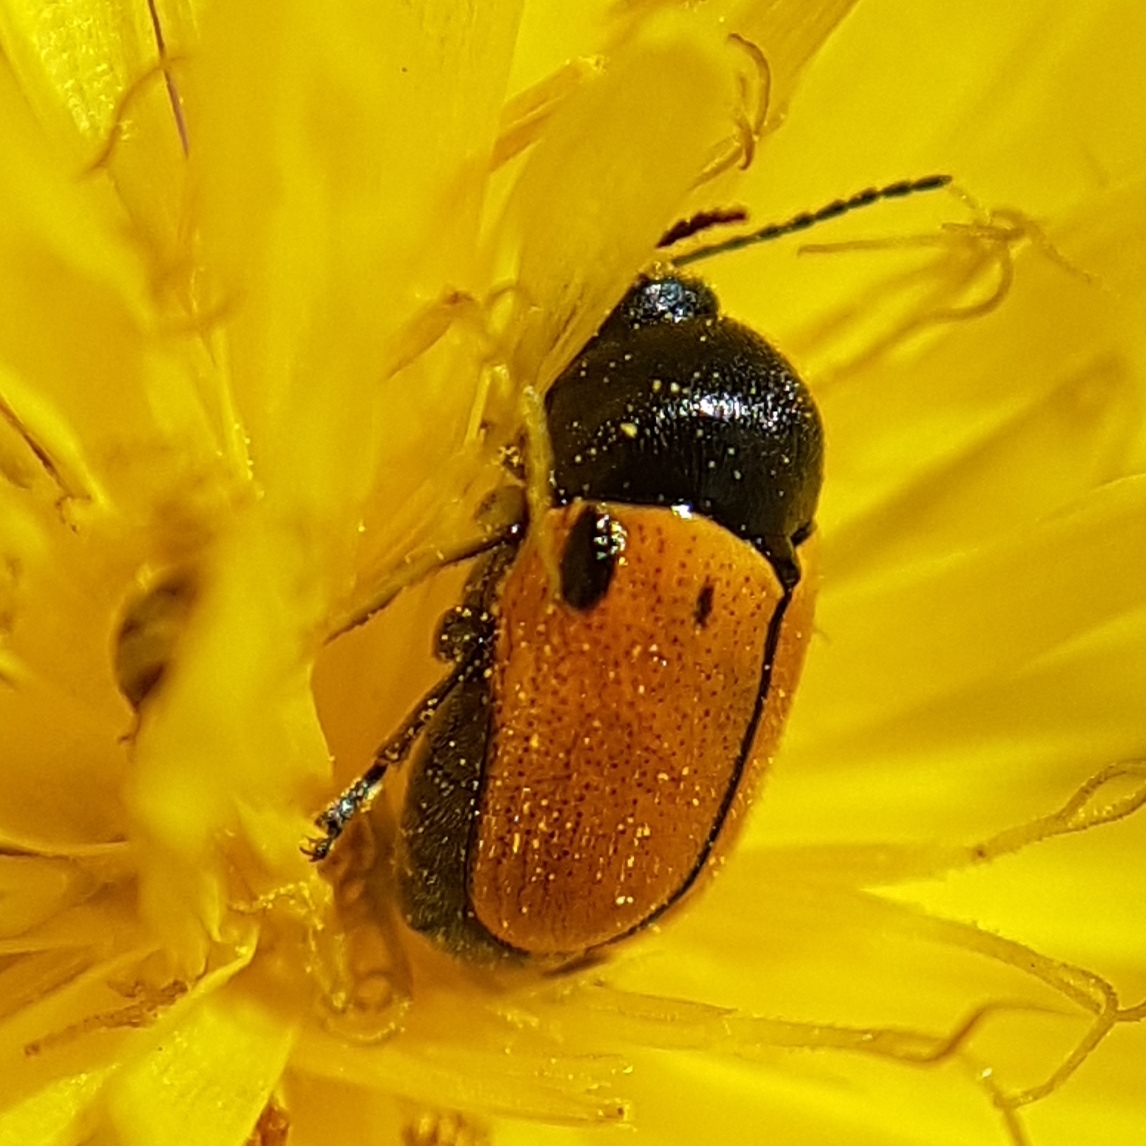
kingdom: Animalia
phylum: Arthropoda
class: Insecta
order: Coleoptera
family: Chrysomelidae
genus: Cryptocephalus
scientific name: Cryptocephalus rugicollis
